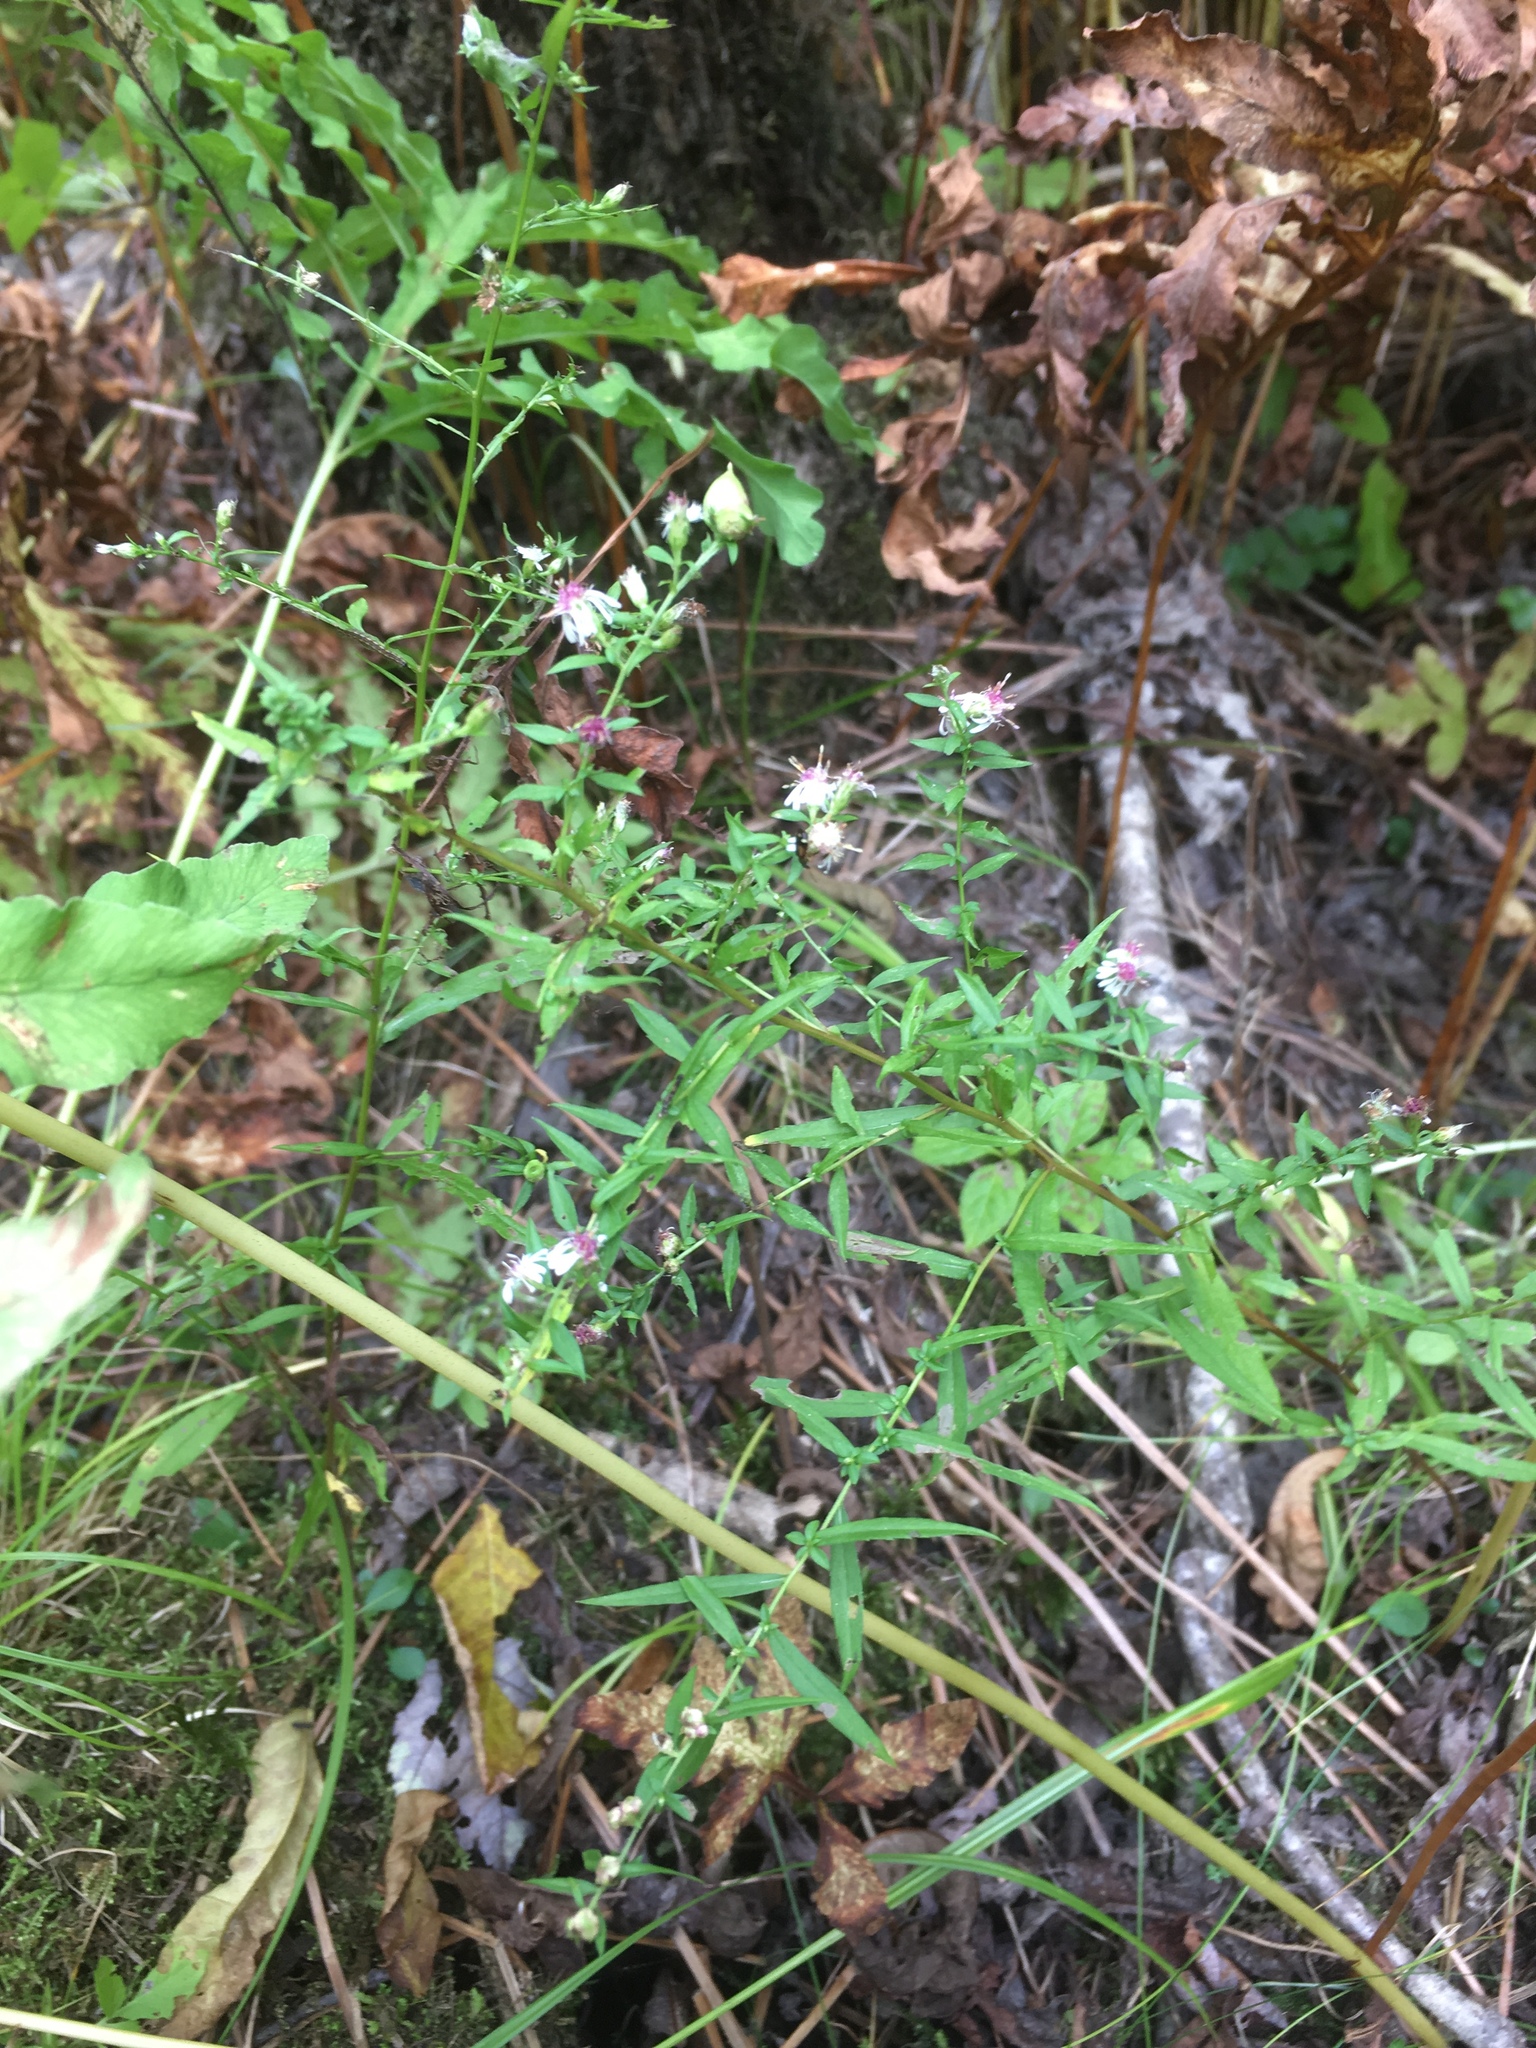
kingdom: Plantae
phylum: Tracheophyta
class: Magnoliopsida
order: Asterales
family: Asteraceae
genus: Symphyotrichum
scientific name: Symphyotrichum lateriflorum
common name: Calico aster
